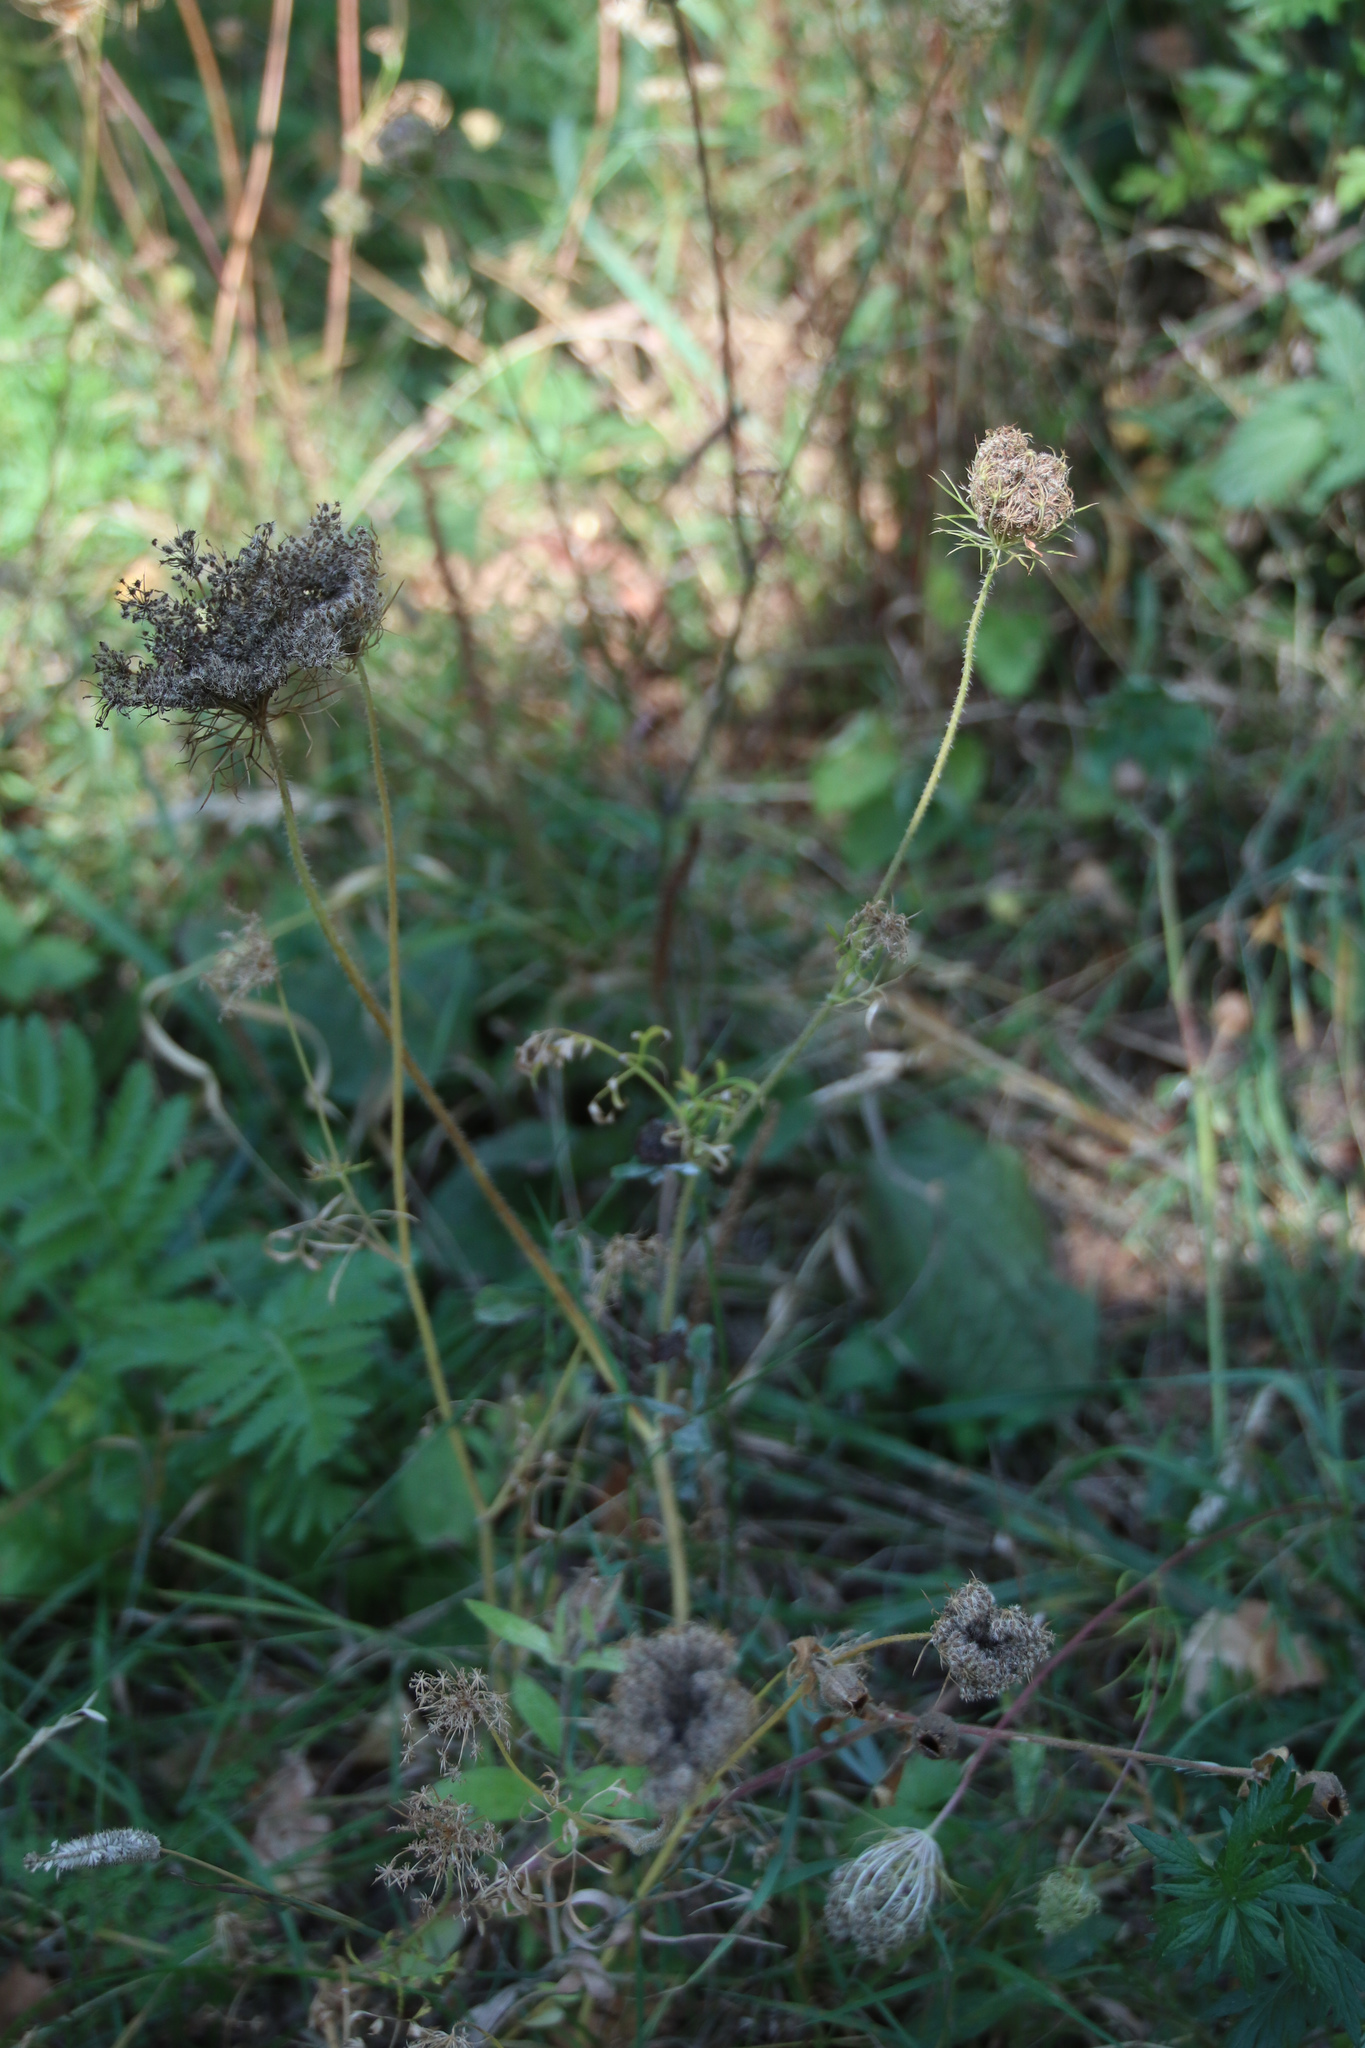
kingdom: Plantae
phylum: Tracheophyta
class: Magnoliopsida
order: Apiales
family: Apiaceae
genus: Daucus
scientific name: Daucus carota
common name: Wild carrot
